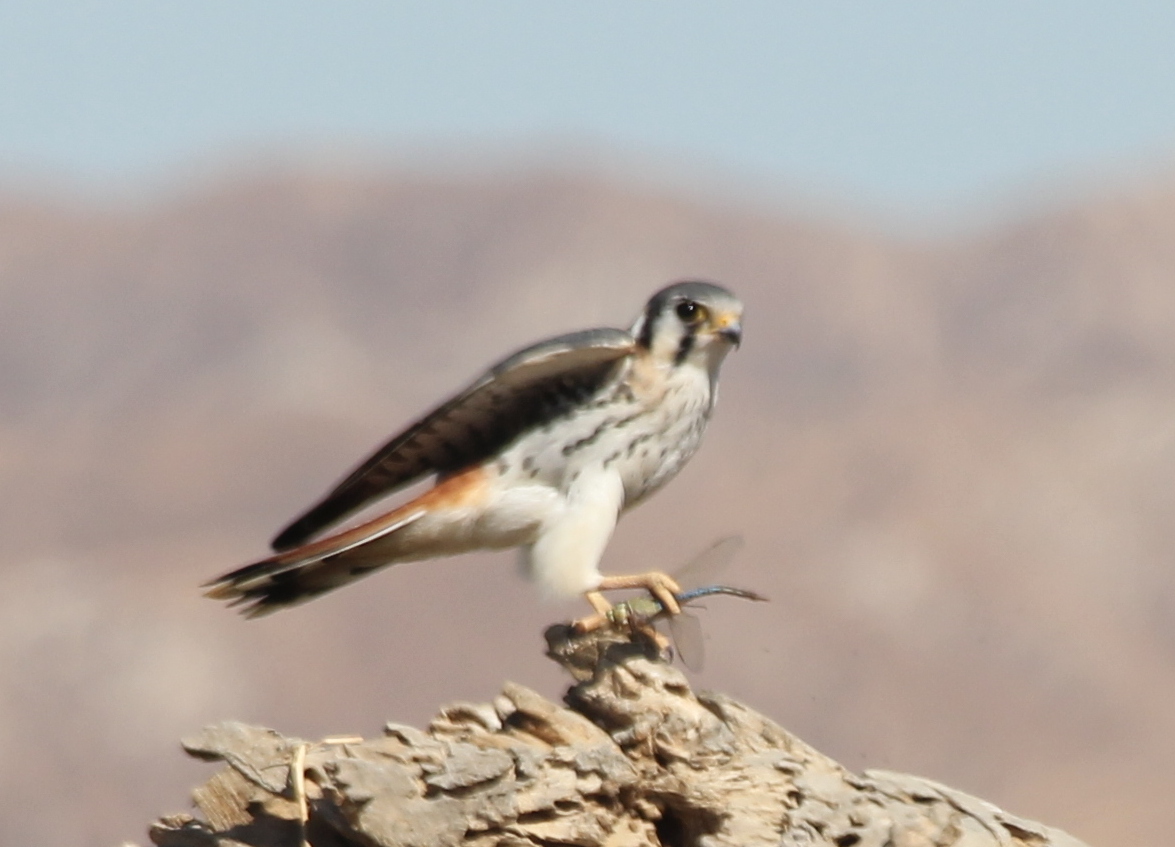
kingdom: Animalia
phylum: Chordata
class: Aves
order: Falconiformes
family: Falconidae
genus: Falco
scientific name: Falco sparverius
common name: American kestrel
